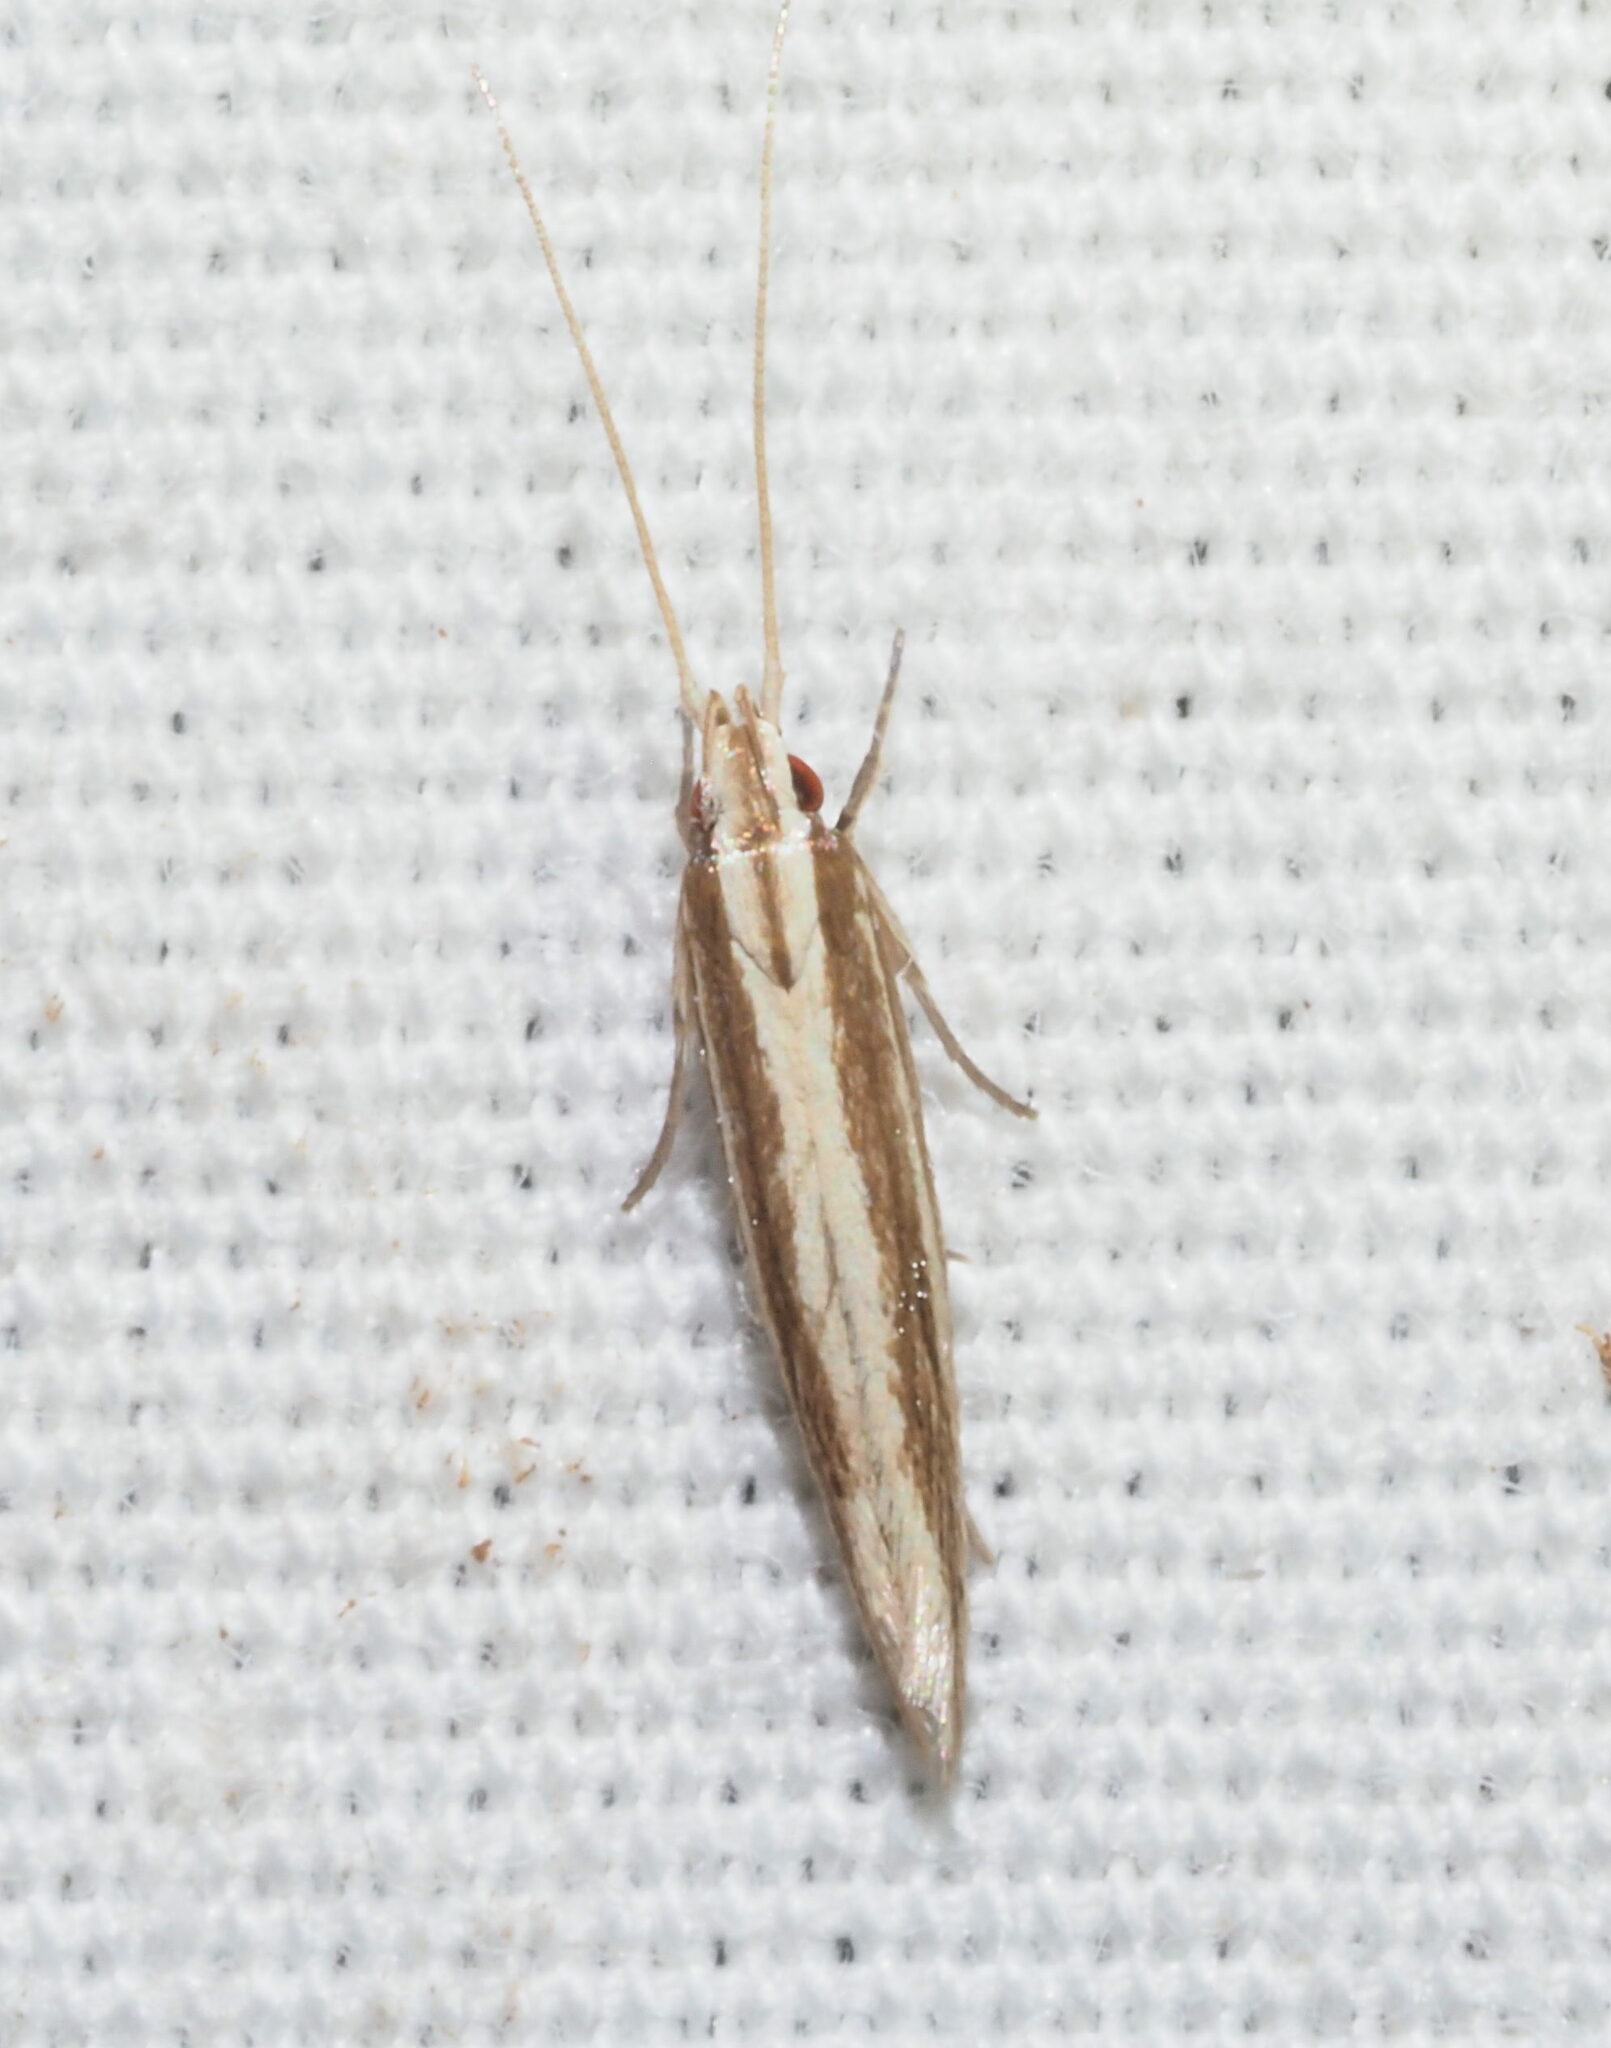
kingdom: Animalia
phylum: Arthropoda
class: Insecta
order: Lepidoptera
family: Cosmopterigidae
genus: Asymphorodes
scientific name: Asymphorodes
